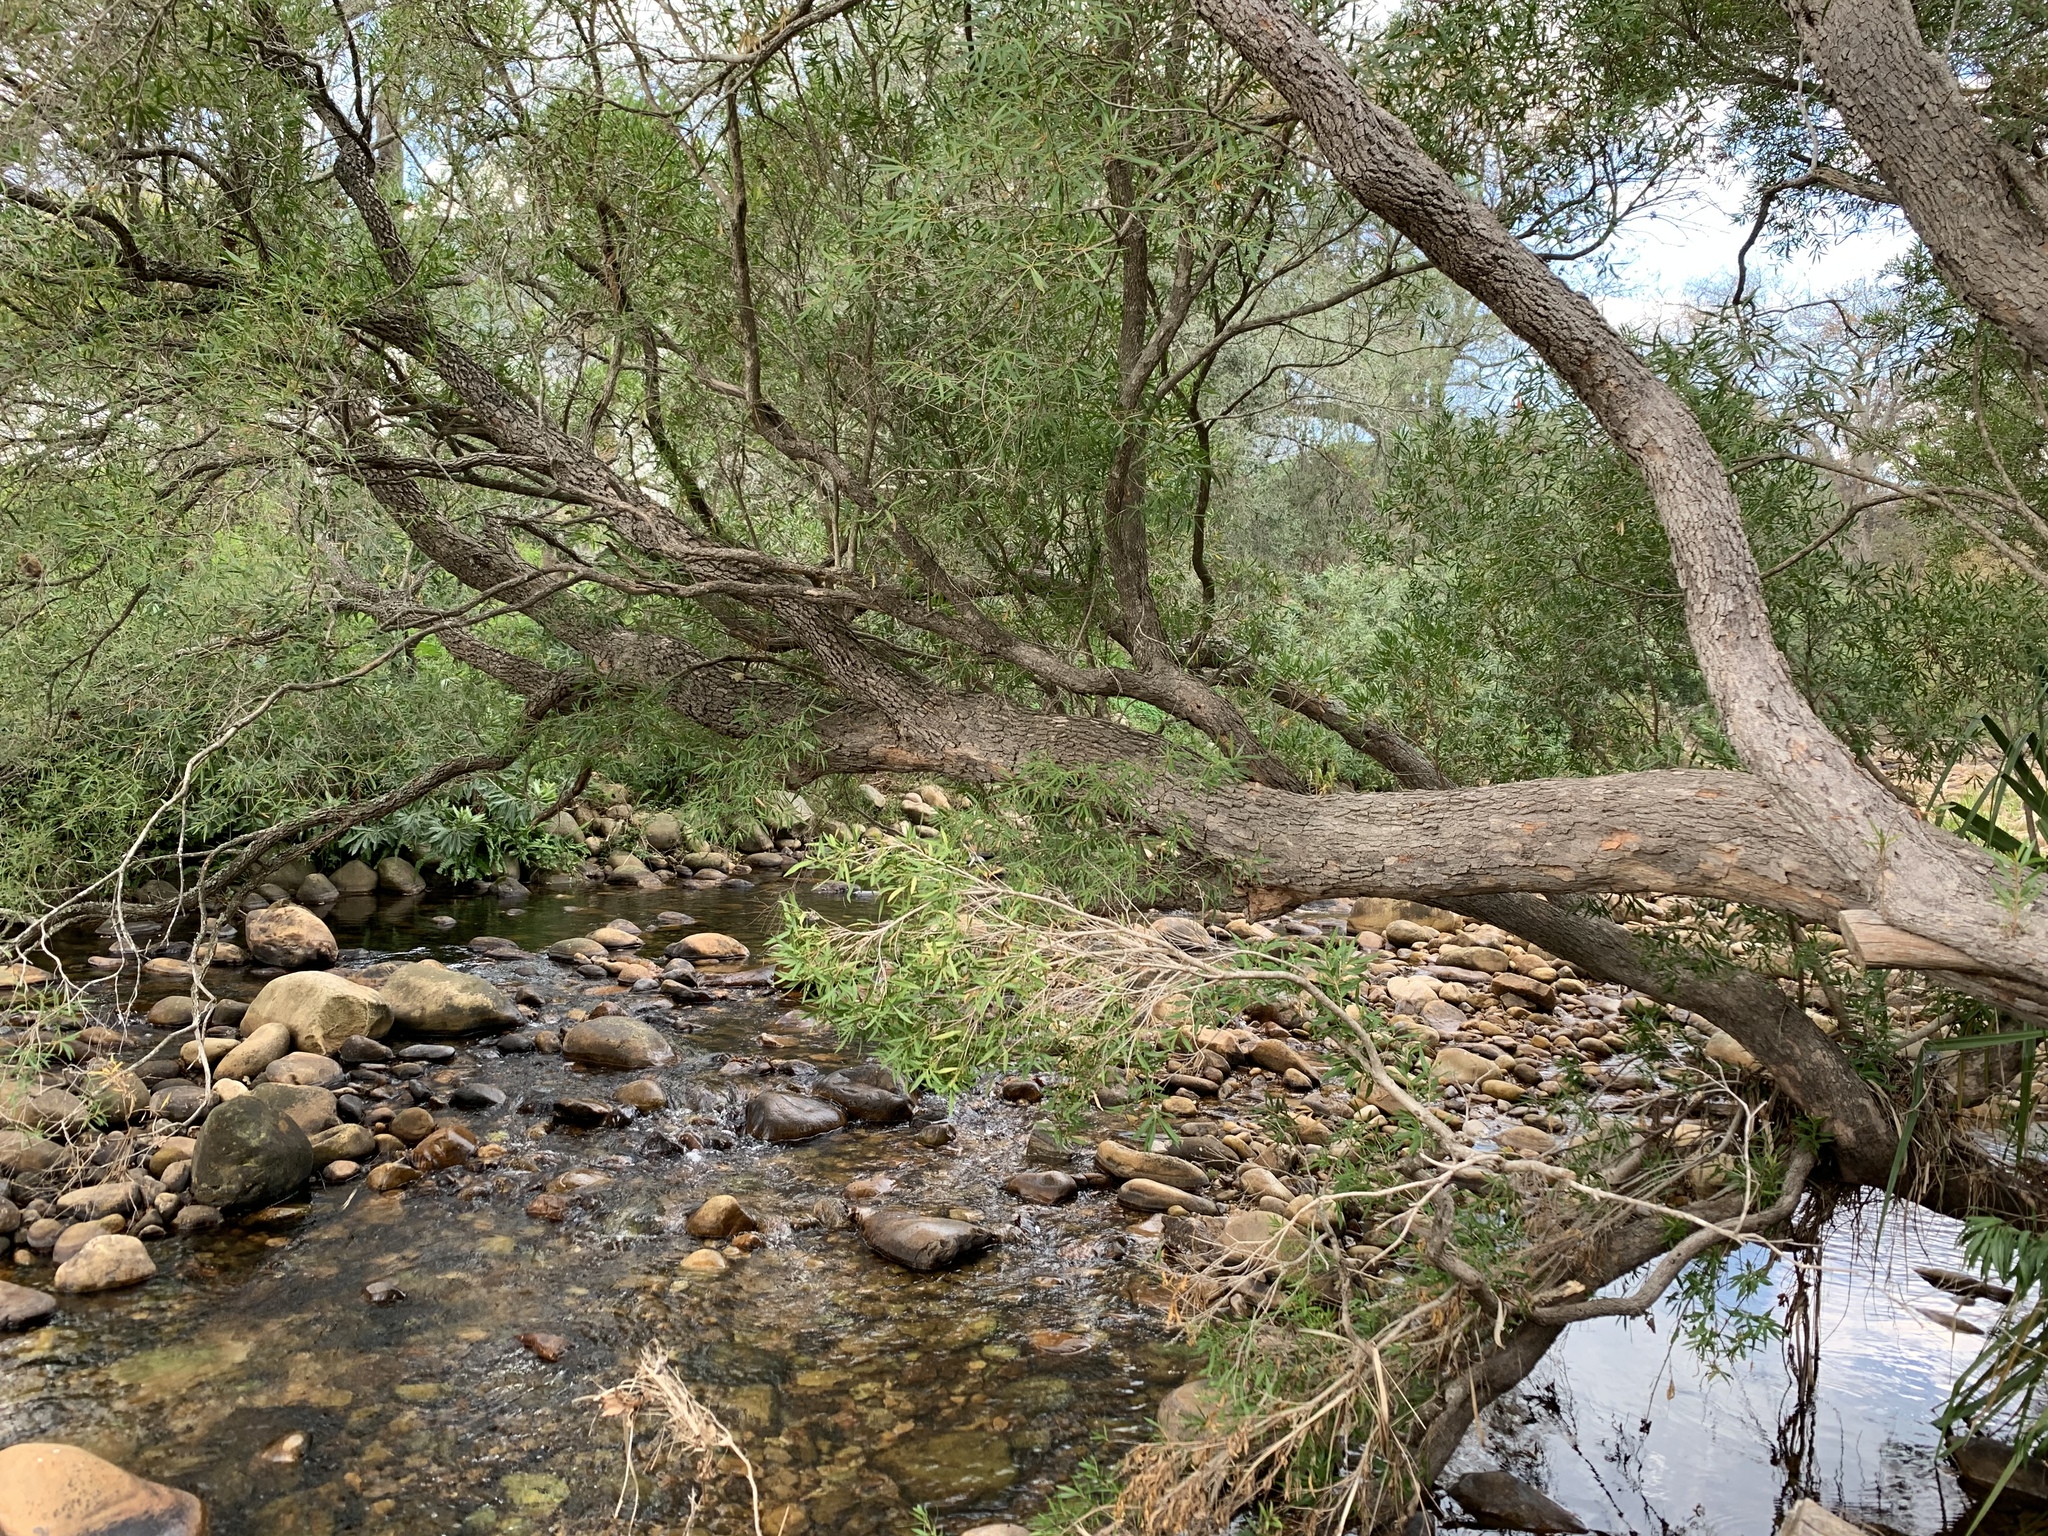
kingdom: Plantae
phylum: Tracheophyta
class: Magnoliopsida
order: Myrtales
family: Myrtaceae
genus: Callistemon
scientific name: Callistemon lanceolatus
